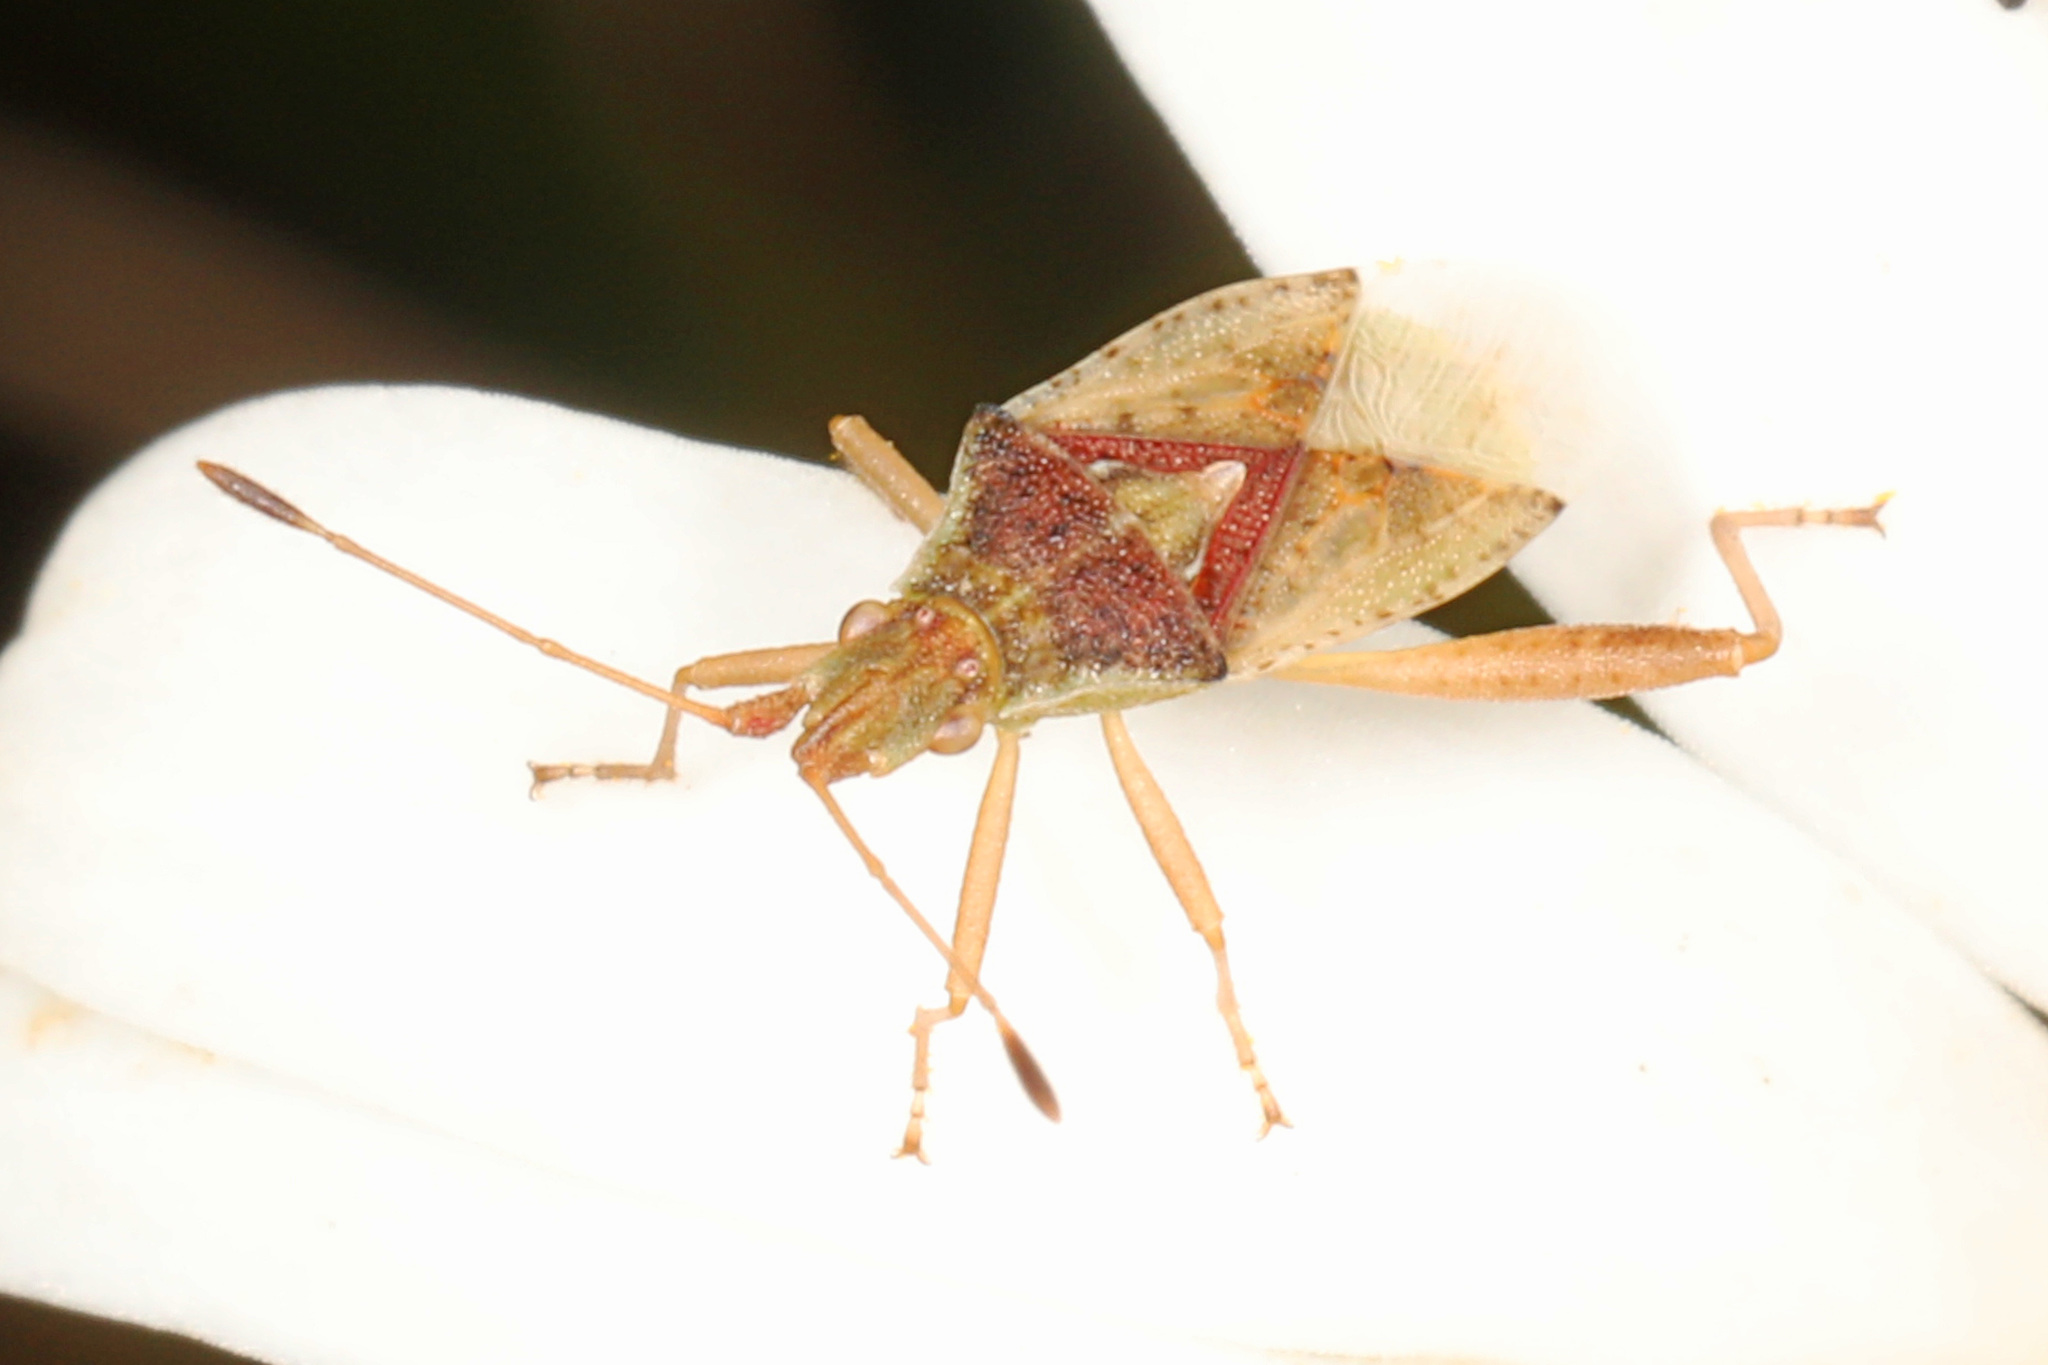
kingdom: Animalia
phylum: Arthropoda
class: Insecta
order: Hemiptera
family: Rhopalidae
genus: Harmostes
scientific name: Harmostes reflexulus
